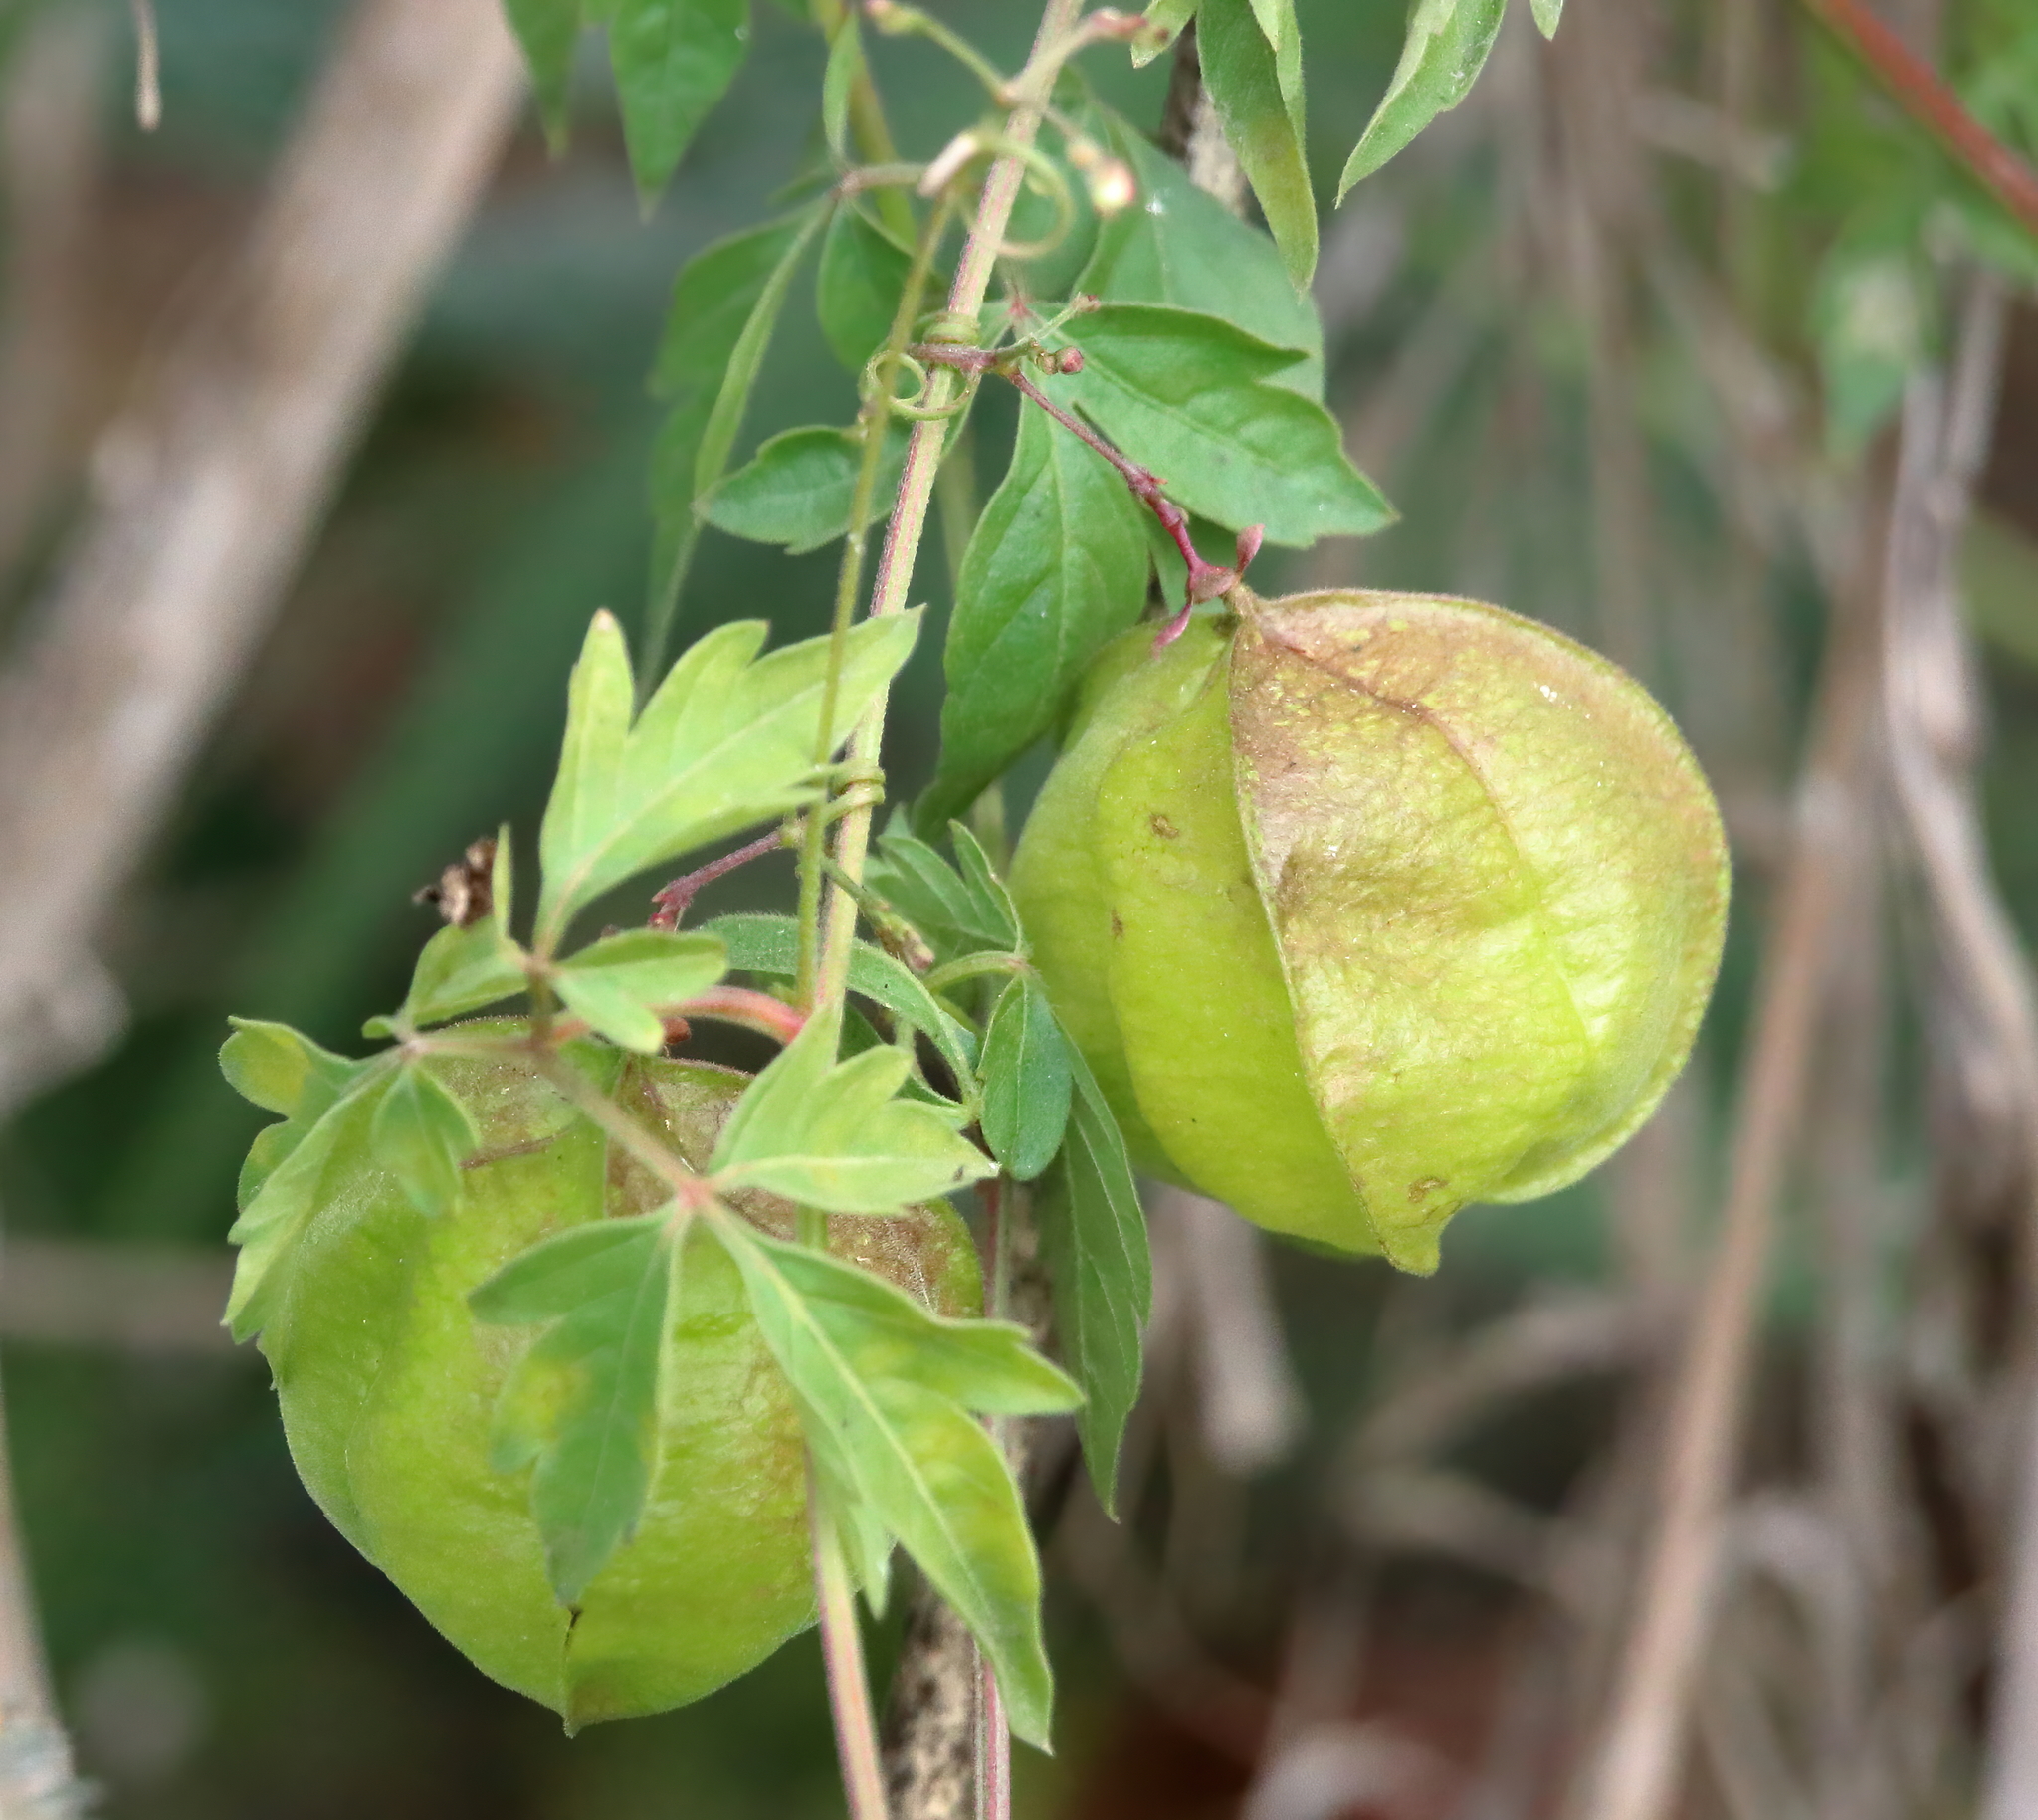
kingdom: Plantae
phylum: Tracheophyta
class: Magnoliopsida
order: Sapindales
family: Sapindaceae
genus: Cardiospermum
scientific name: Cardiospermum halicacabum
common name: Balloon vine
